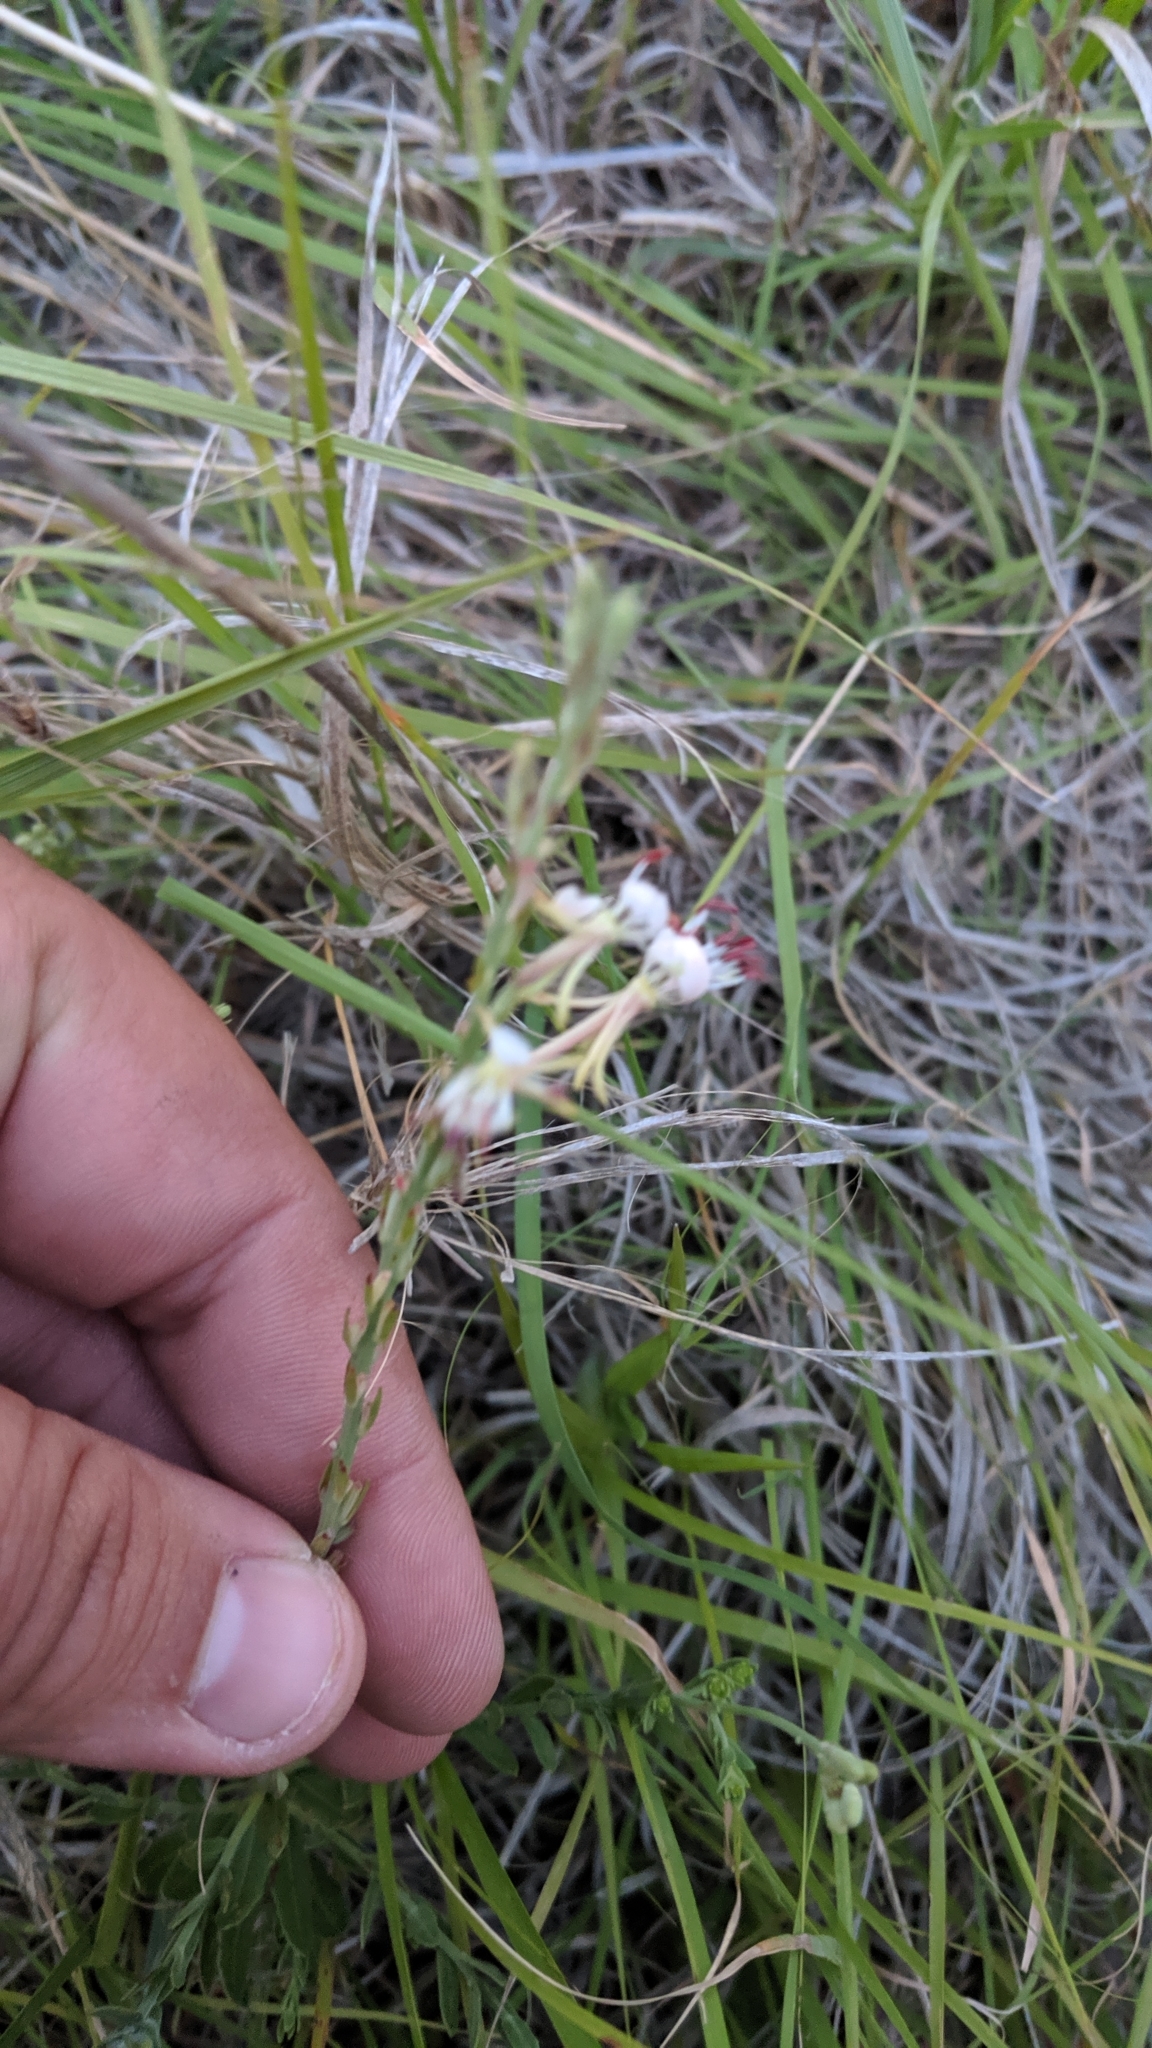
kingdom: Plantae
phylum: Tracheophyta
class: Magnoliopsida
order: Myrtales
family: Onagraceae
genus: Oenothera
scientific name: Oenothera suffrutescens
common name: Scarlet beeblossom
